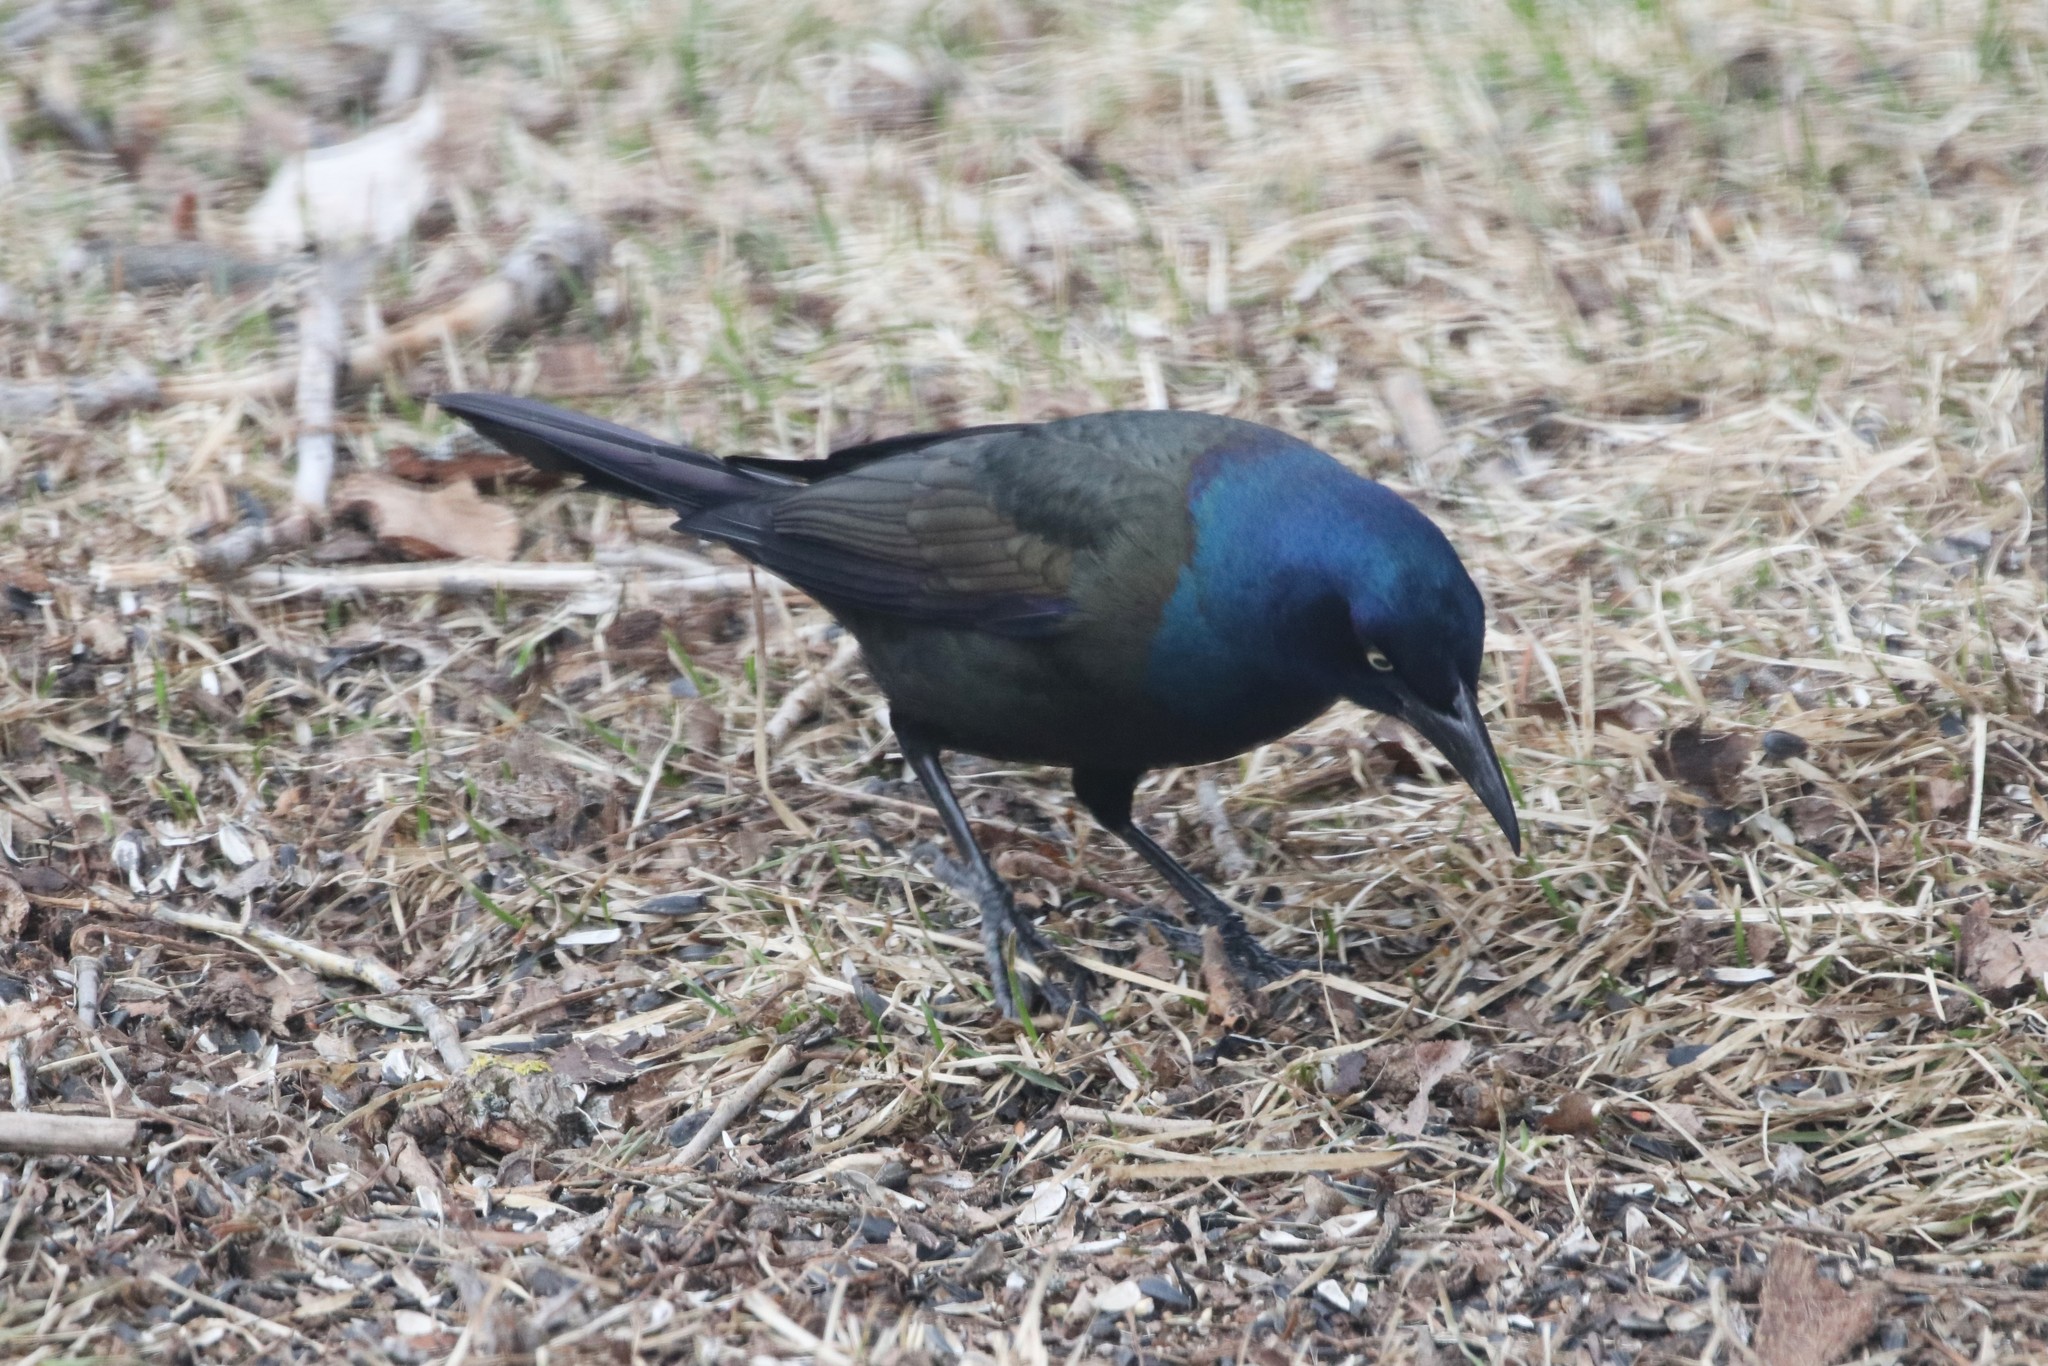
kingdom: Animalia
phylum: Chordata
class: Aves
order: Passeriformes
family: Icteridae
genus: Quiscalus
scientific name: Quiscalus quiscula
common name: Common grackle
